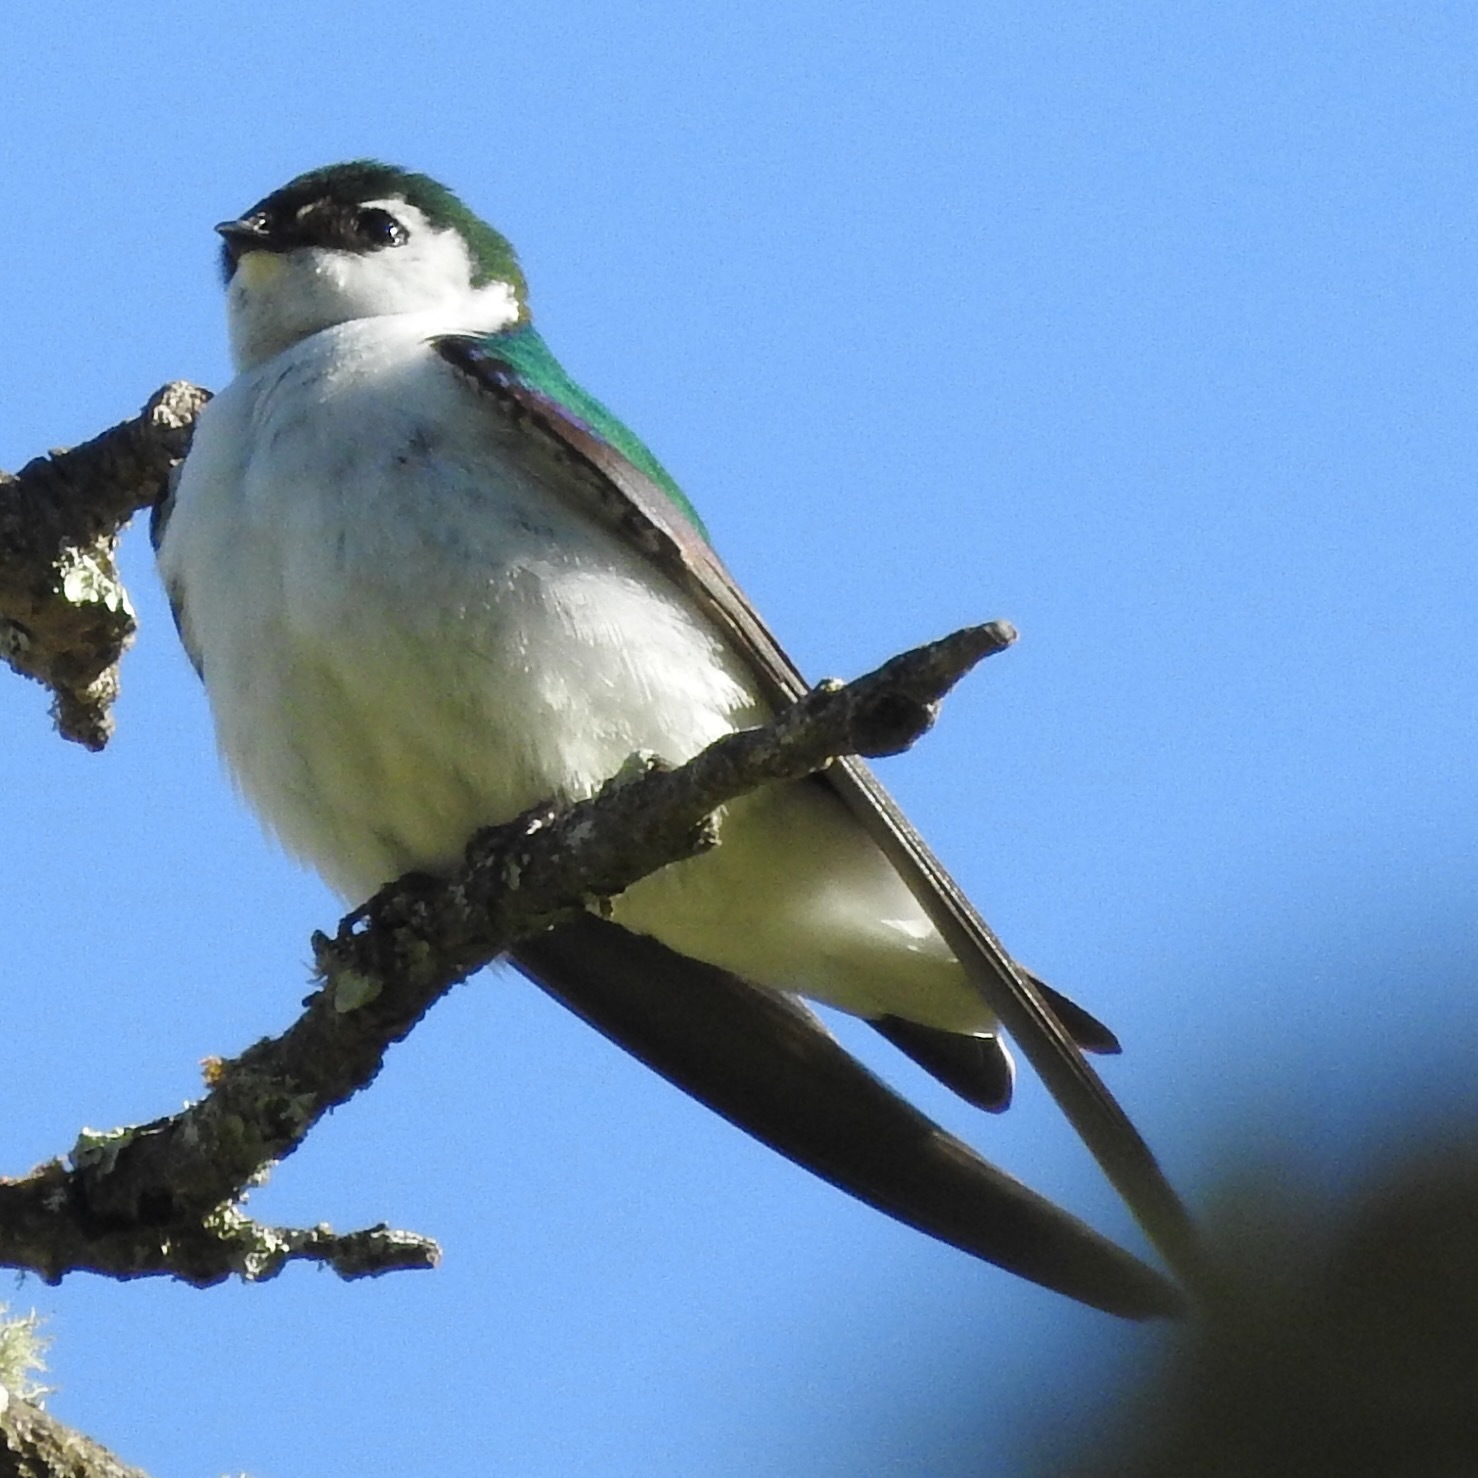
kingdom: Animalia
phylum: Chordata
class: Aves
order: Passeriformes
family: Hirundinidae
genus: Tachycineta
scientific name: Tachycineta thalassina
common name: Violet-green swallow
